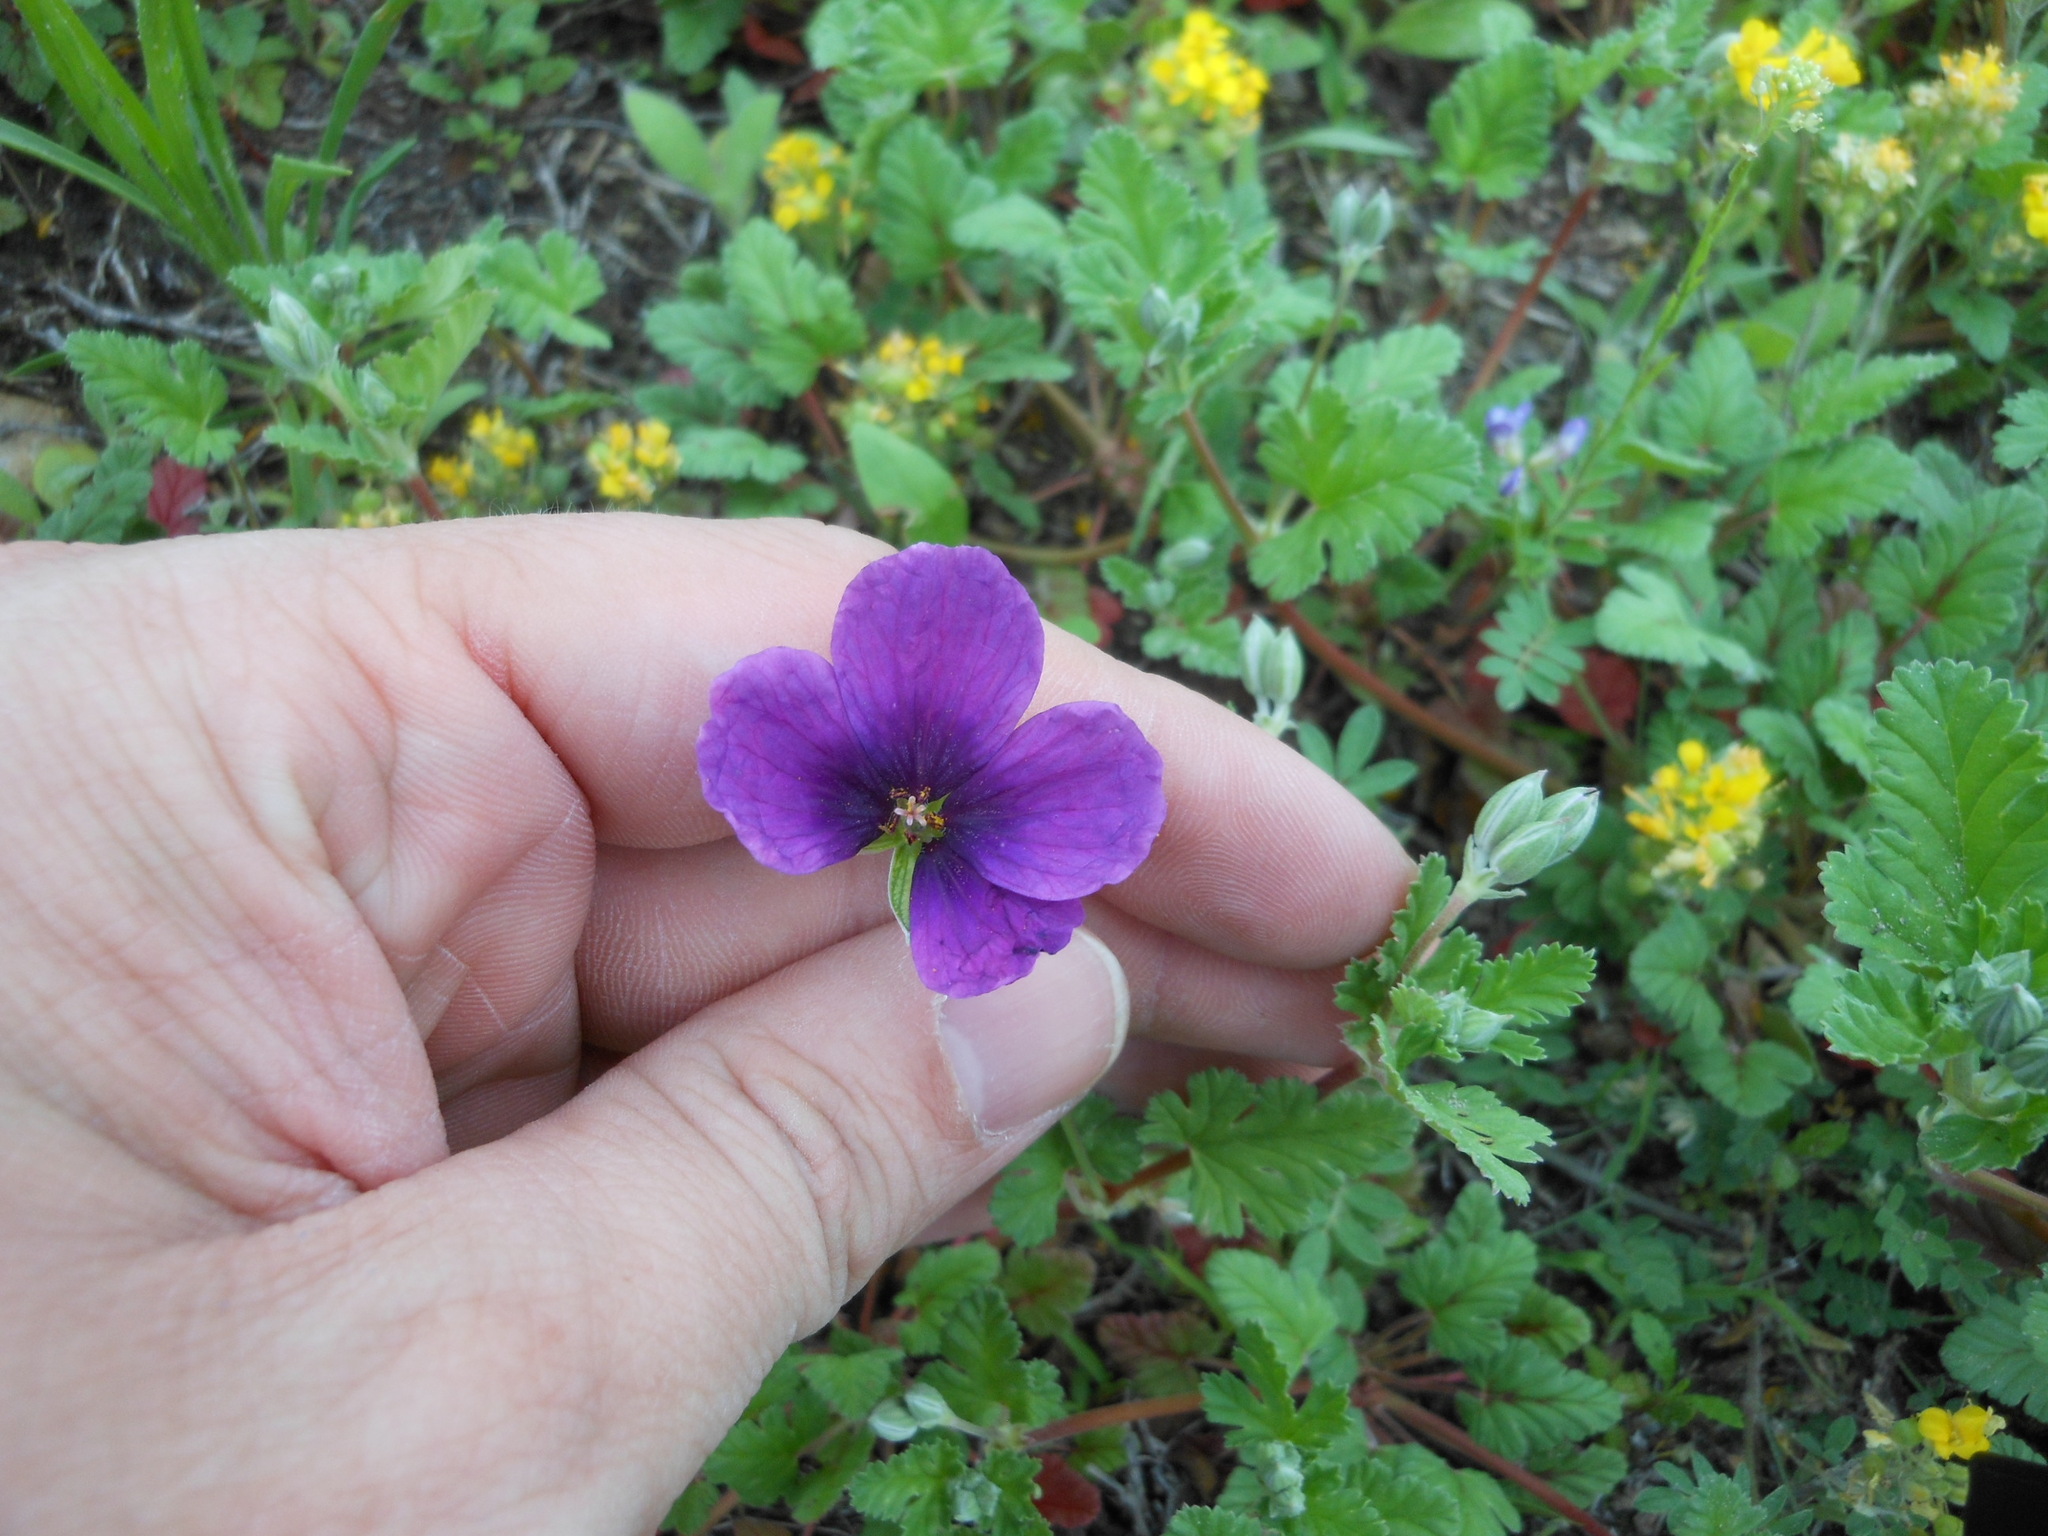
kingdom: Plantae
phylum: Tracheophyta
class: Magnoliopsida
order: Geraniales
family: Geraniaceae
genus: Erodium
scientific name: Erodium texanum
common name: Texas stork's-bill
